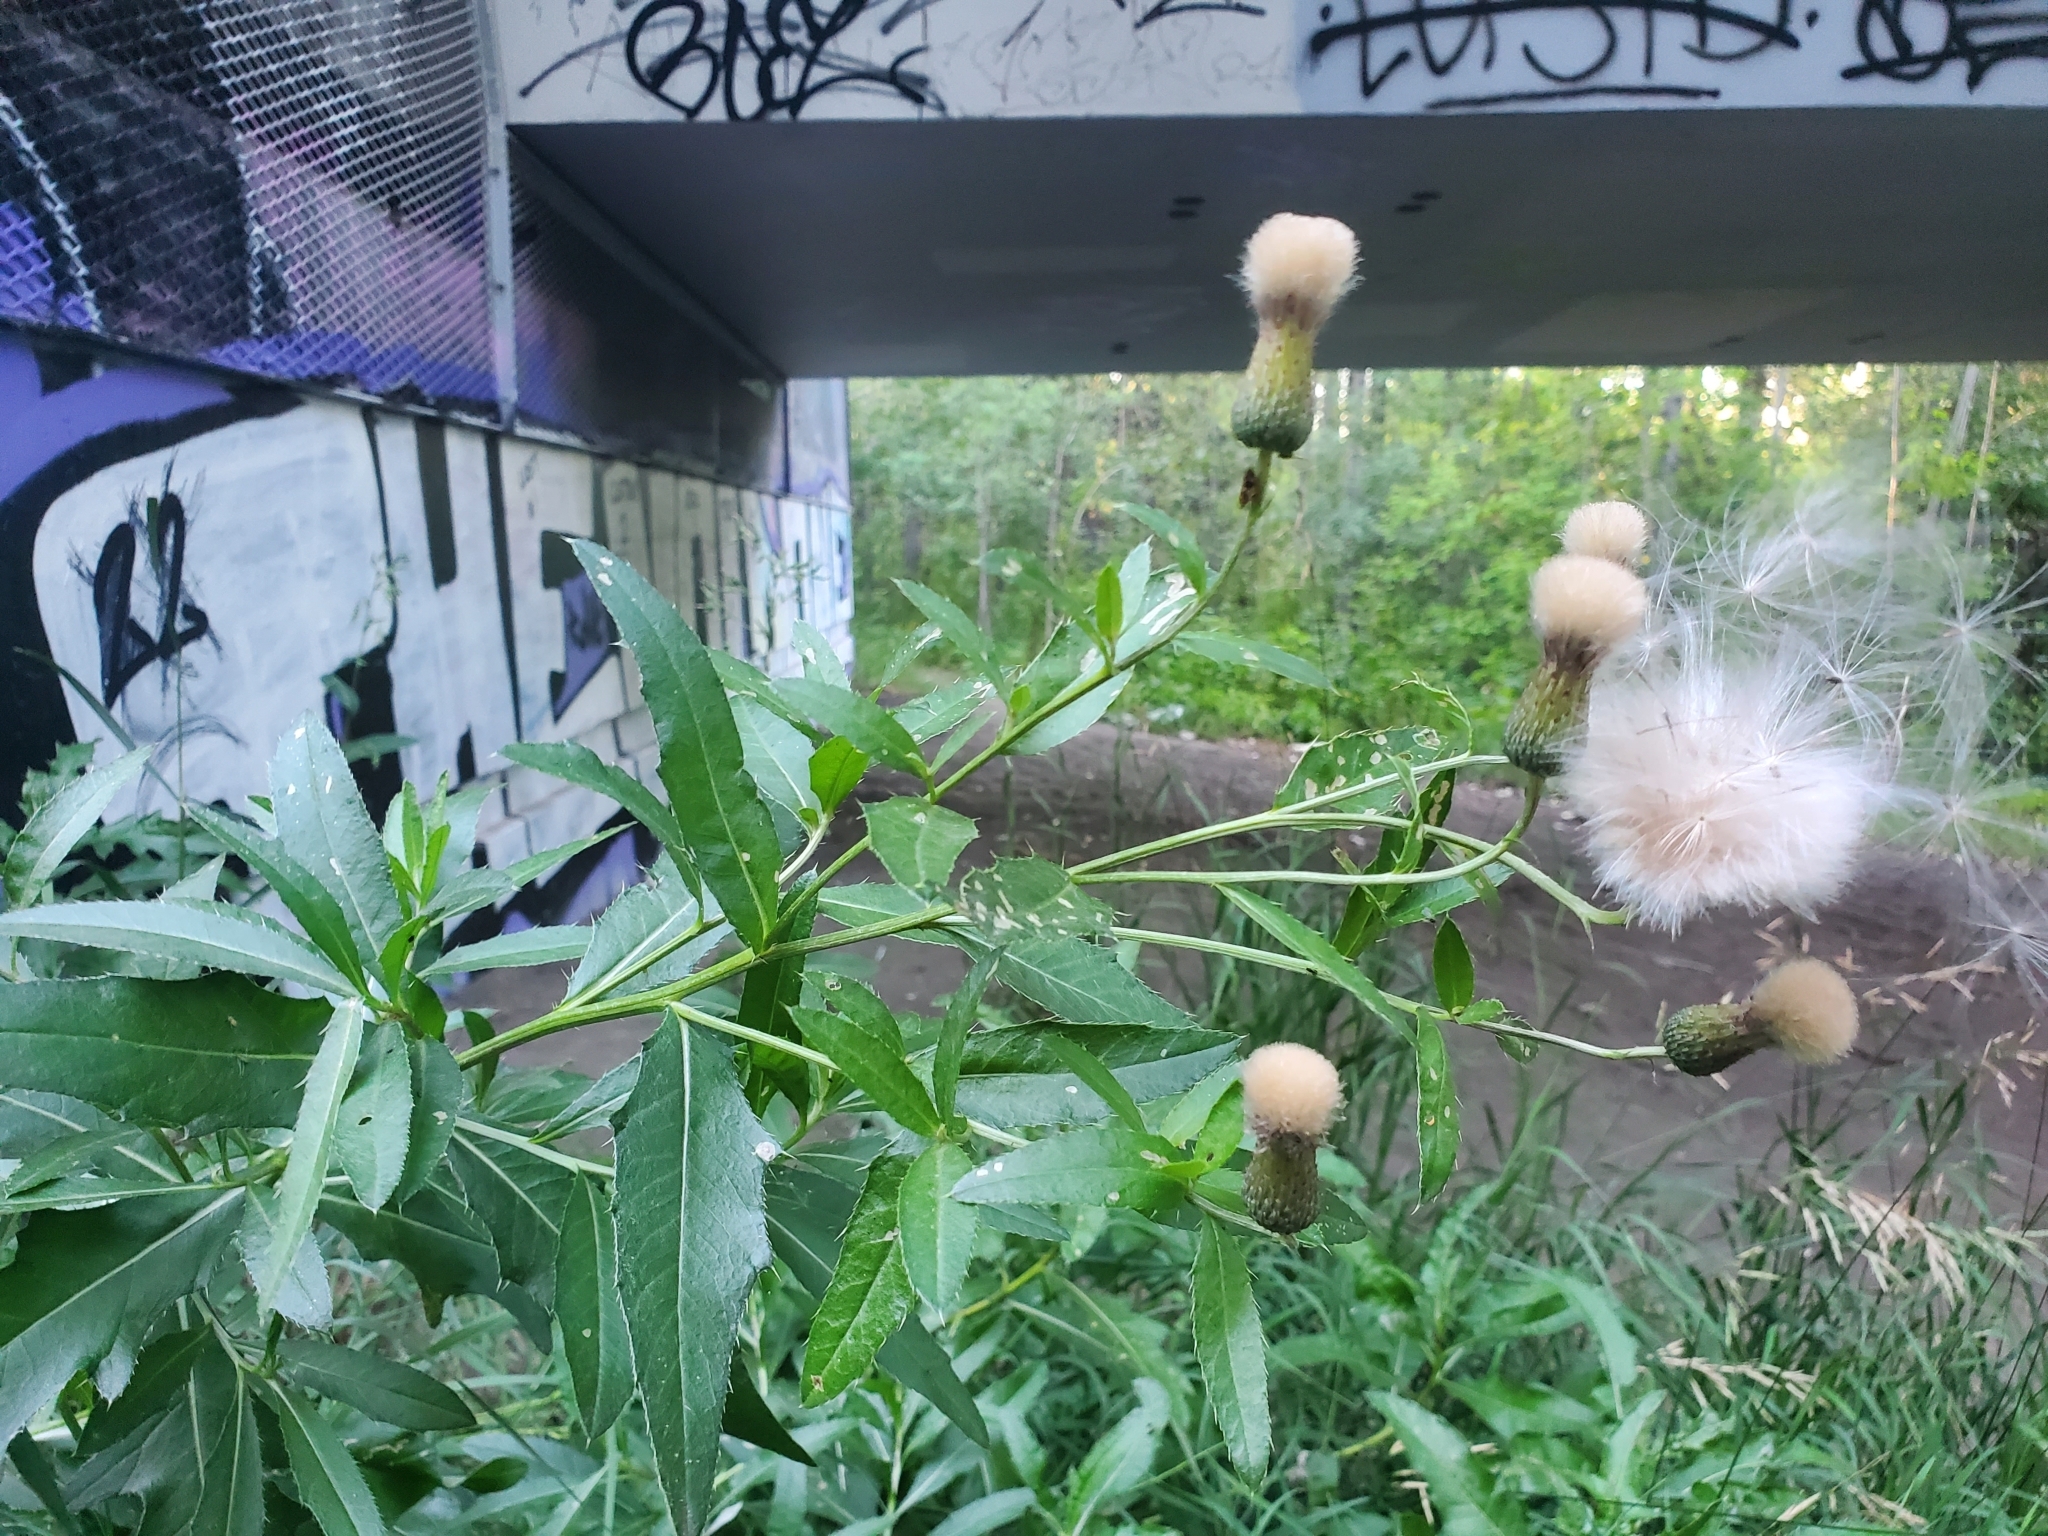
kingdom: Plantae
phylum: Tracheophyta
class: Magnoliopsida
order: Asterales
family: Asteraceae
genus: Cirsium
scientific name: Cirsium arvense
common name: Creeping thistle
